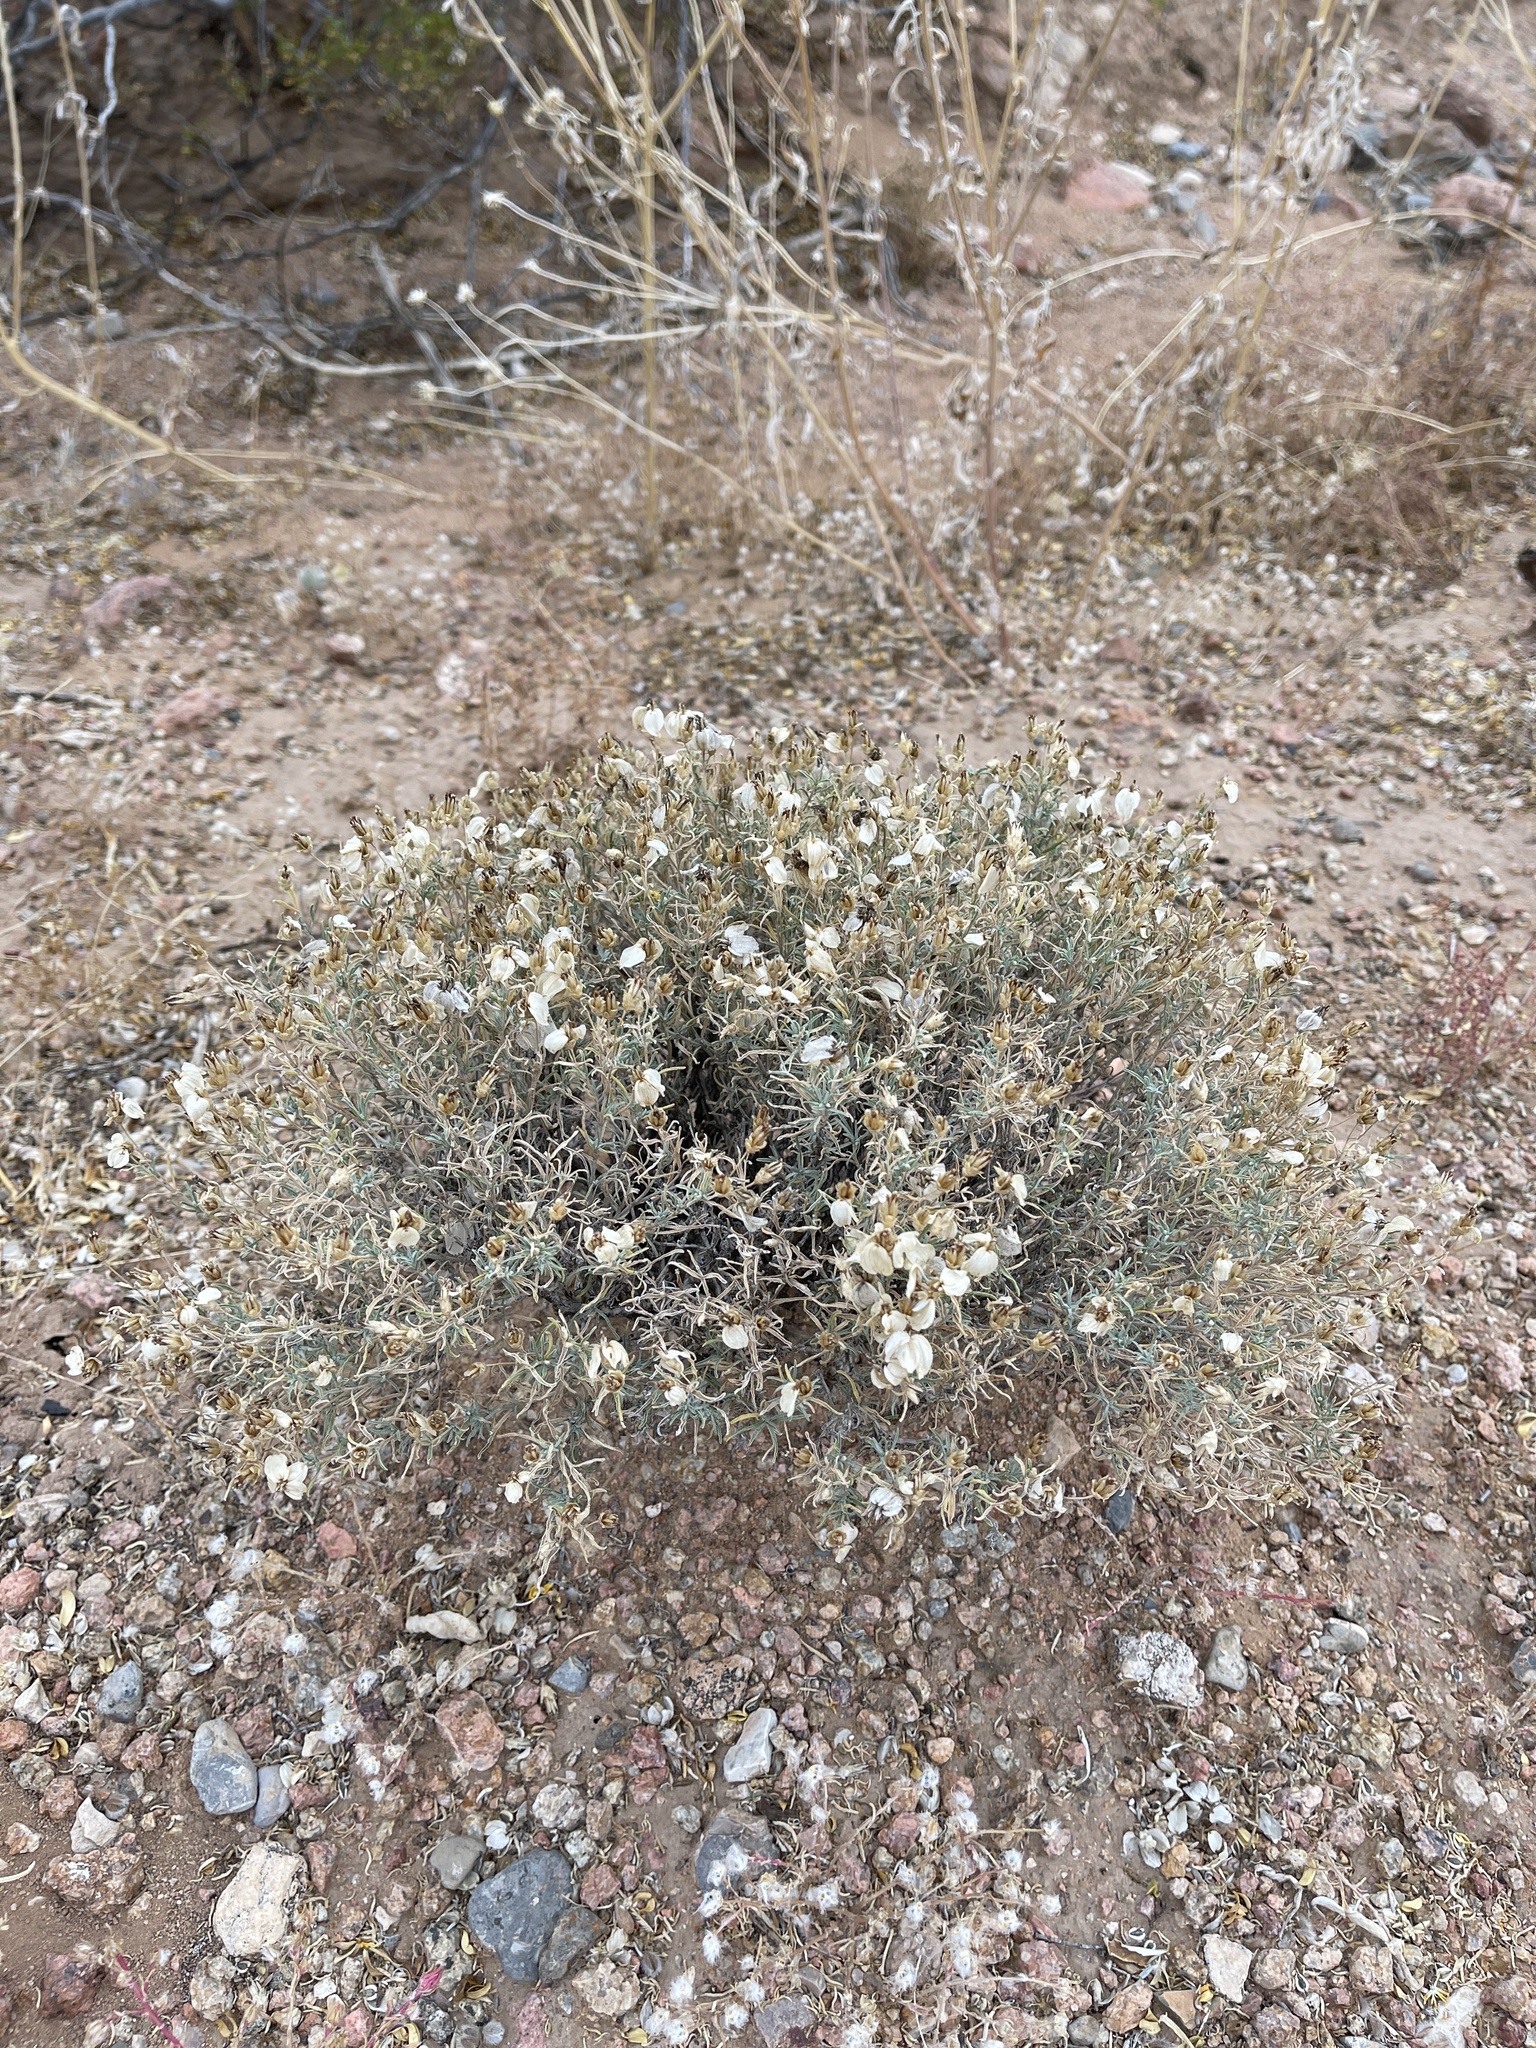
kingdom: Plantae
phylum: Tracheophyta
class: Magnoliopsida
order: Asterales
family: Asteraceae
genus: Zinnia
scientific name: Zinnia acerosa
